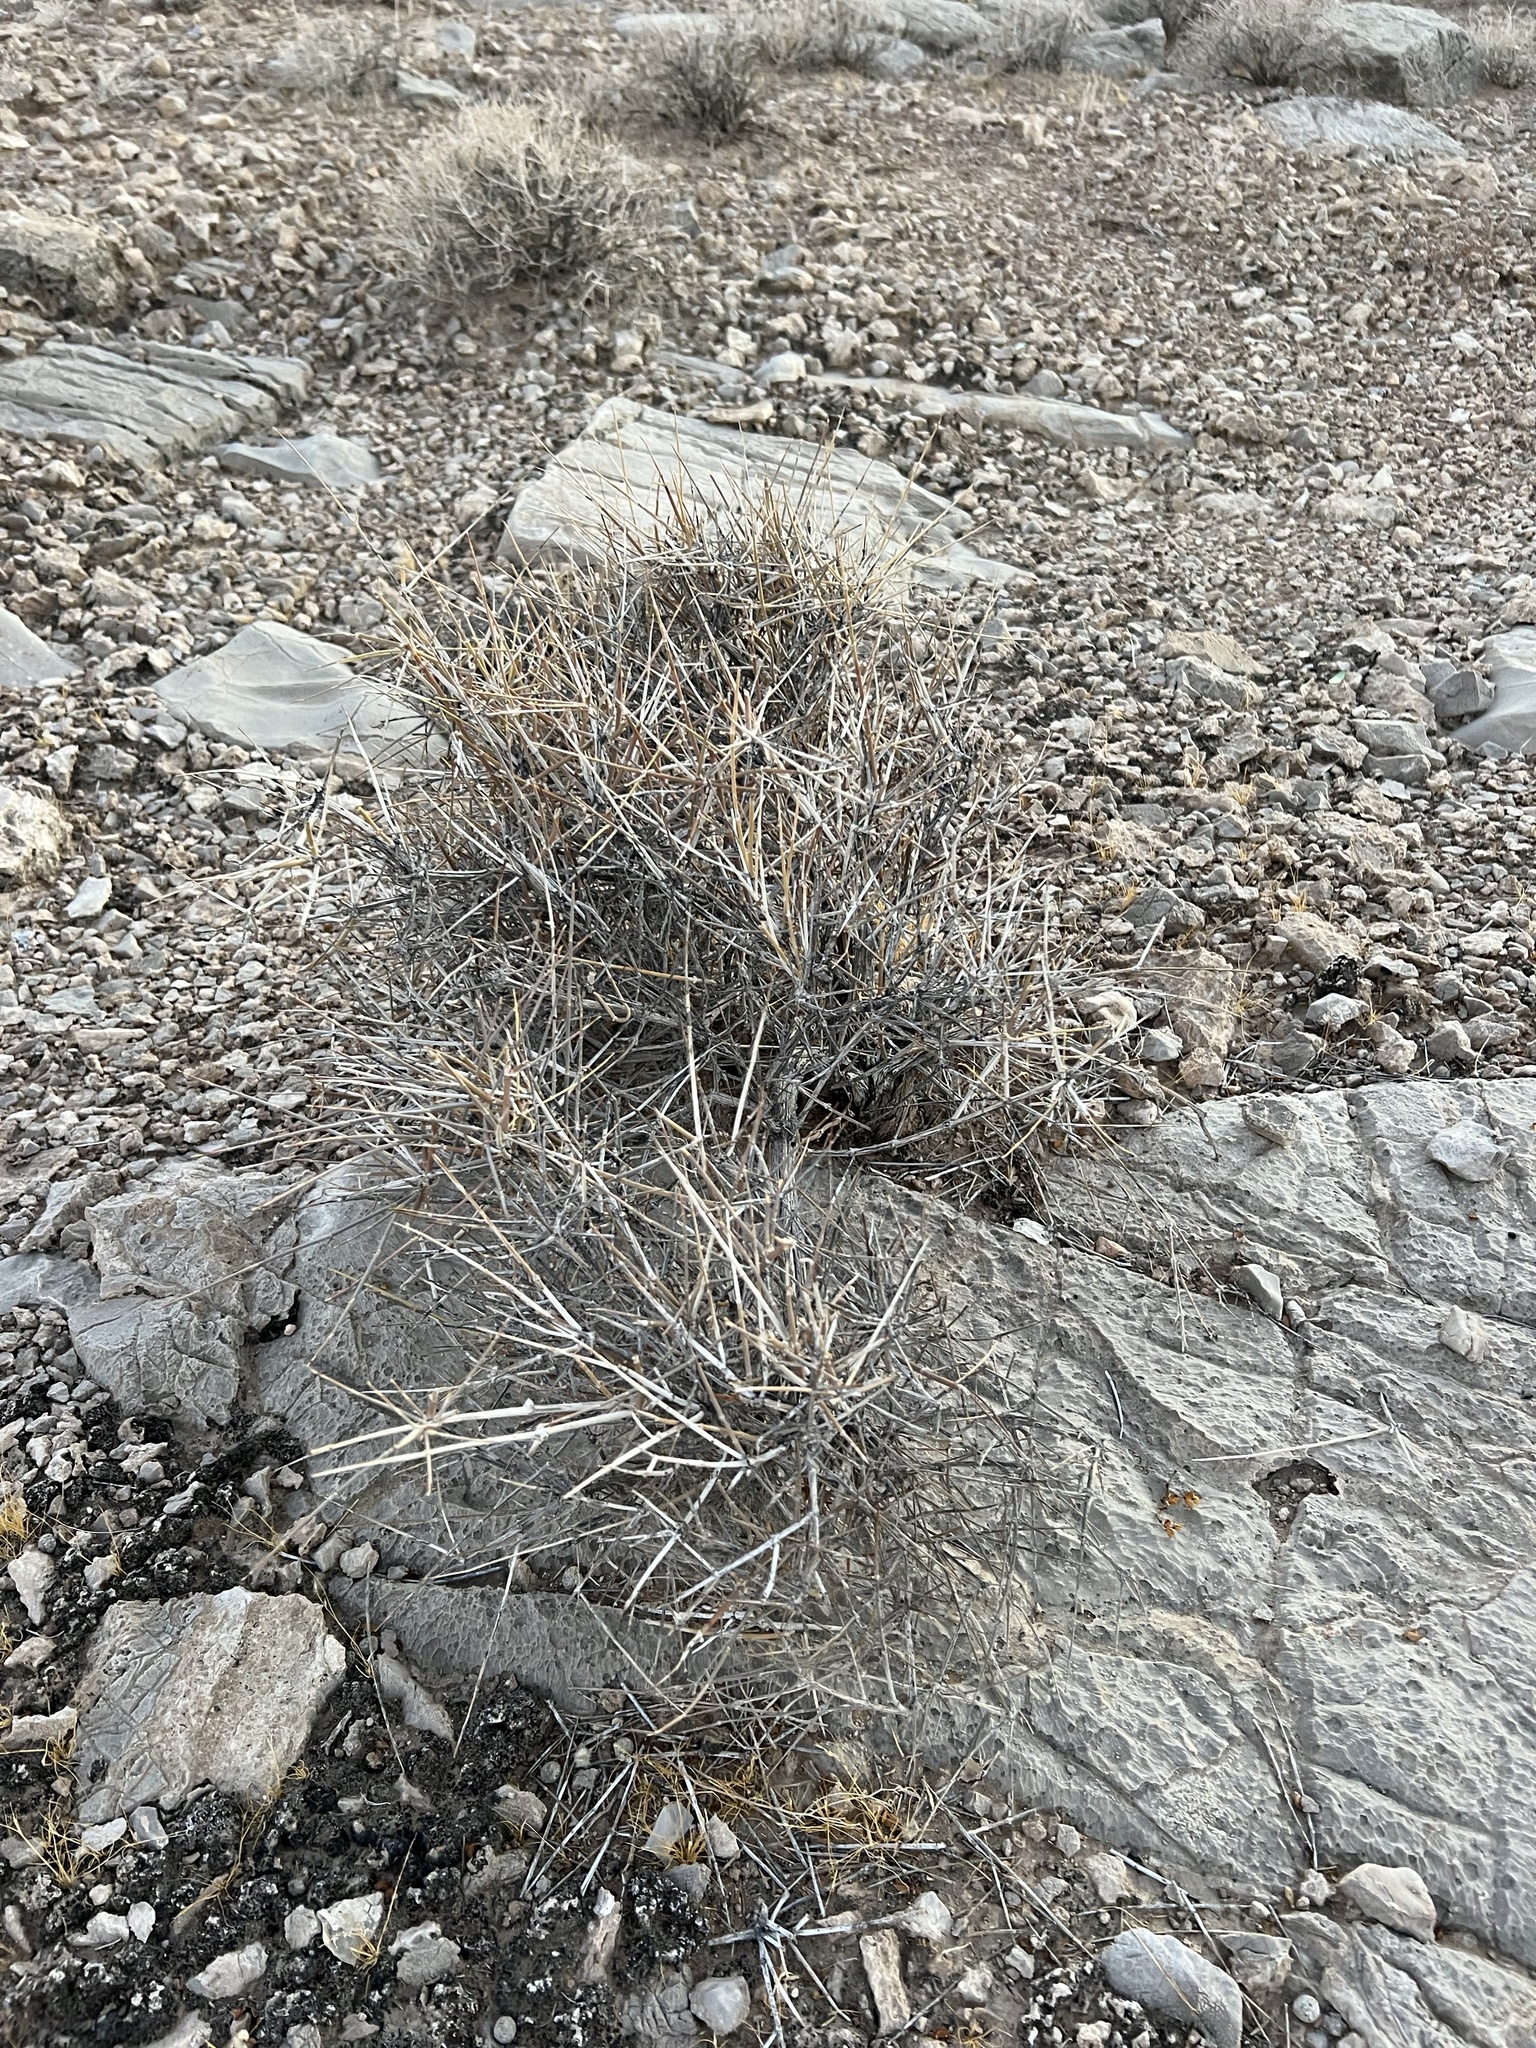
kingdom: Plantae
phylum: Tracheophyta
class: Gnetopsida
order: Ephedrales
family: Ephedraceae
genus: Ephedra
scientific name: Ephedra nevadensis
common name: Gray ephedra
